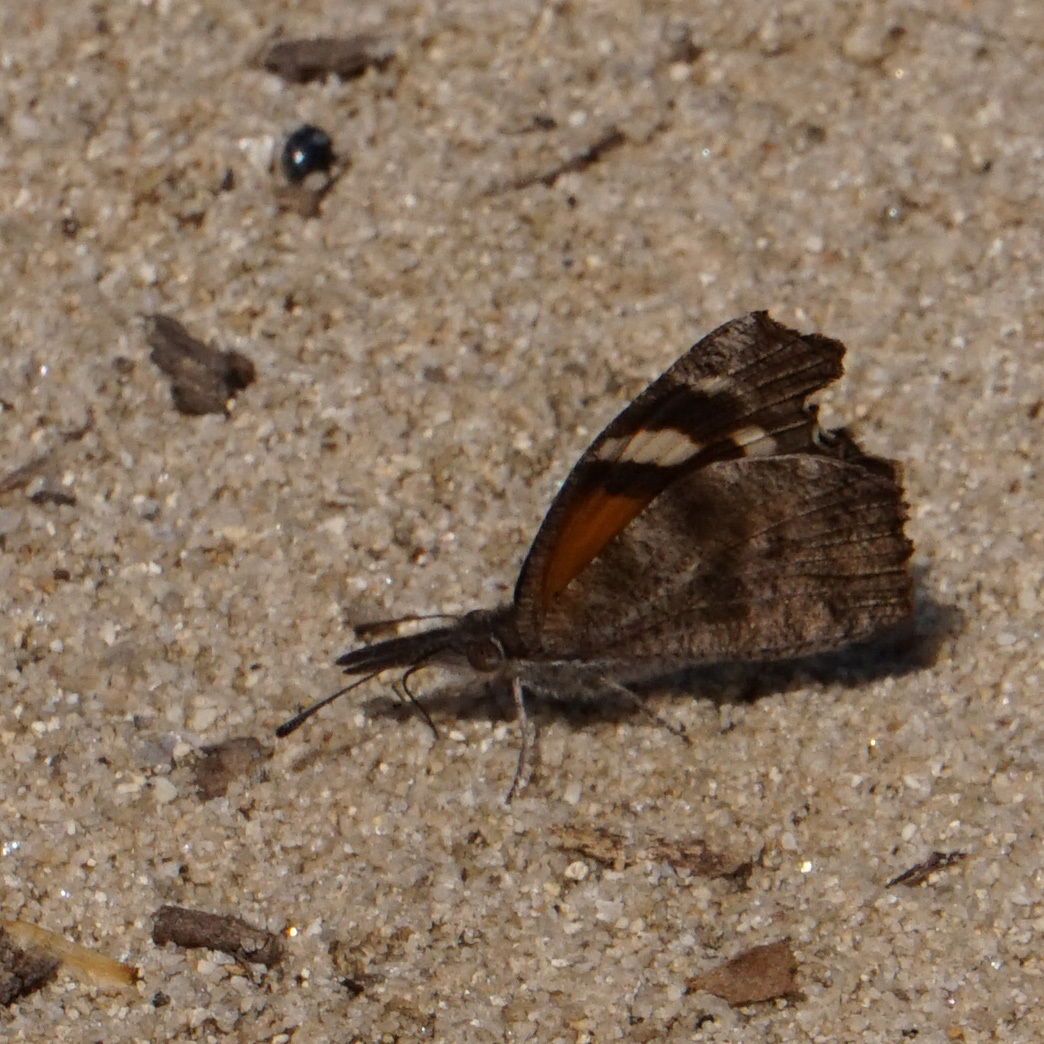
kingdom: Animalia
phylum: Arthropoda
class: Insecta
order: Lepidoptera
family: Nymphalidae
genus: Libytheana
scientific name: Libytheana carinenta
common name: American snout
